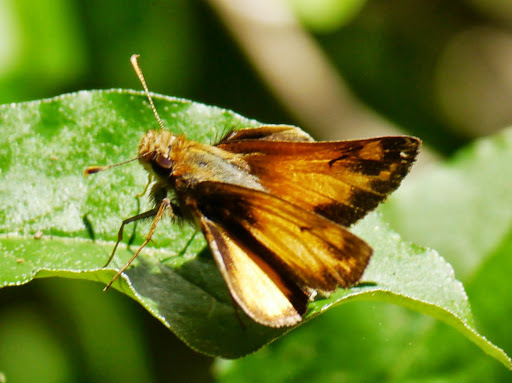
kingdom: Animalia
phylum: Arthropoda
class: Insecta
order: Lepidoptera
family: Hesperiidae
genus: Lon
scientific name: Lon zabulon
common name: Zabulon skipper
